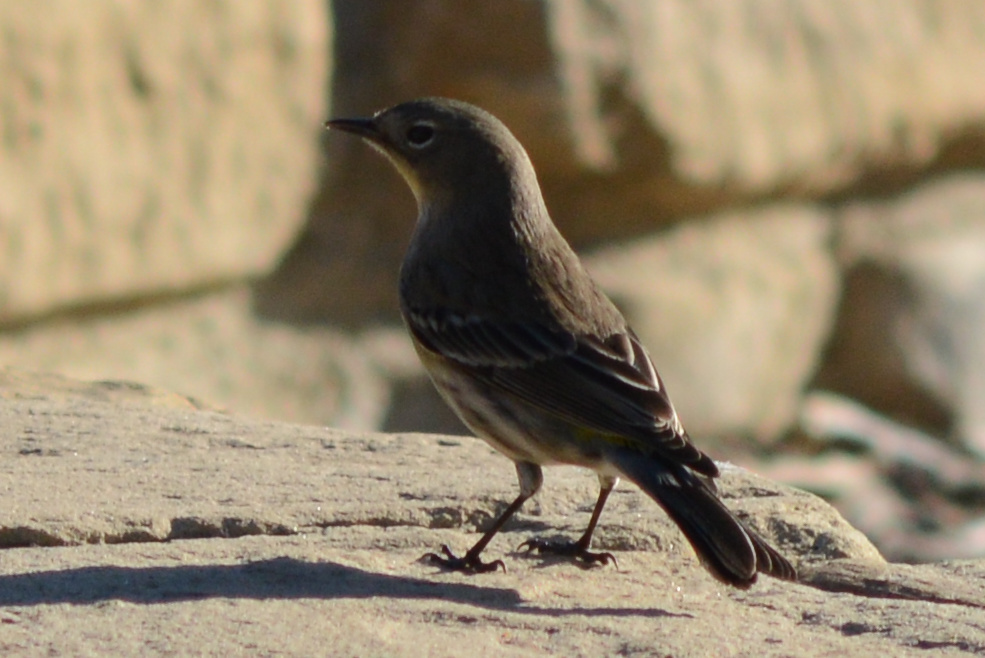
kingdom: Animalia
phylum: Chordata
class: Aves
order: Passeriformes
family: Parulidae
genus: Setophaga
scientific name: Setophaga auduboni
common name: Audubon's warbler
